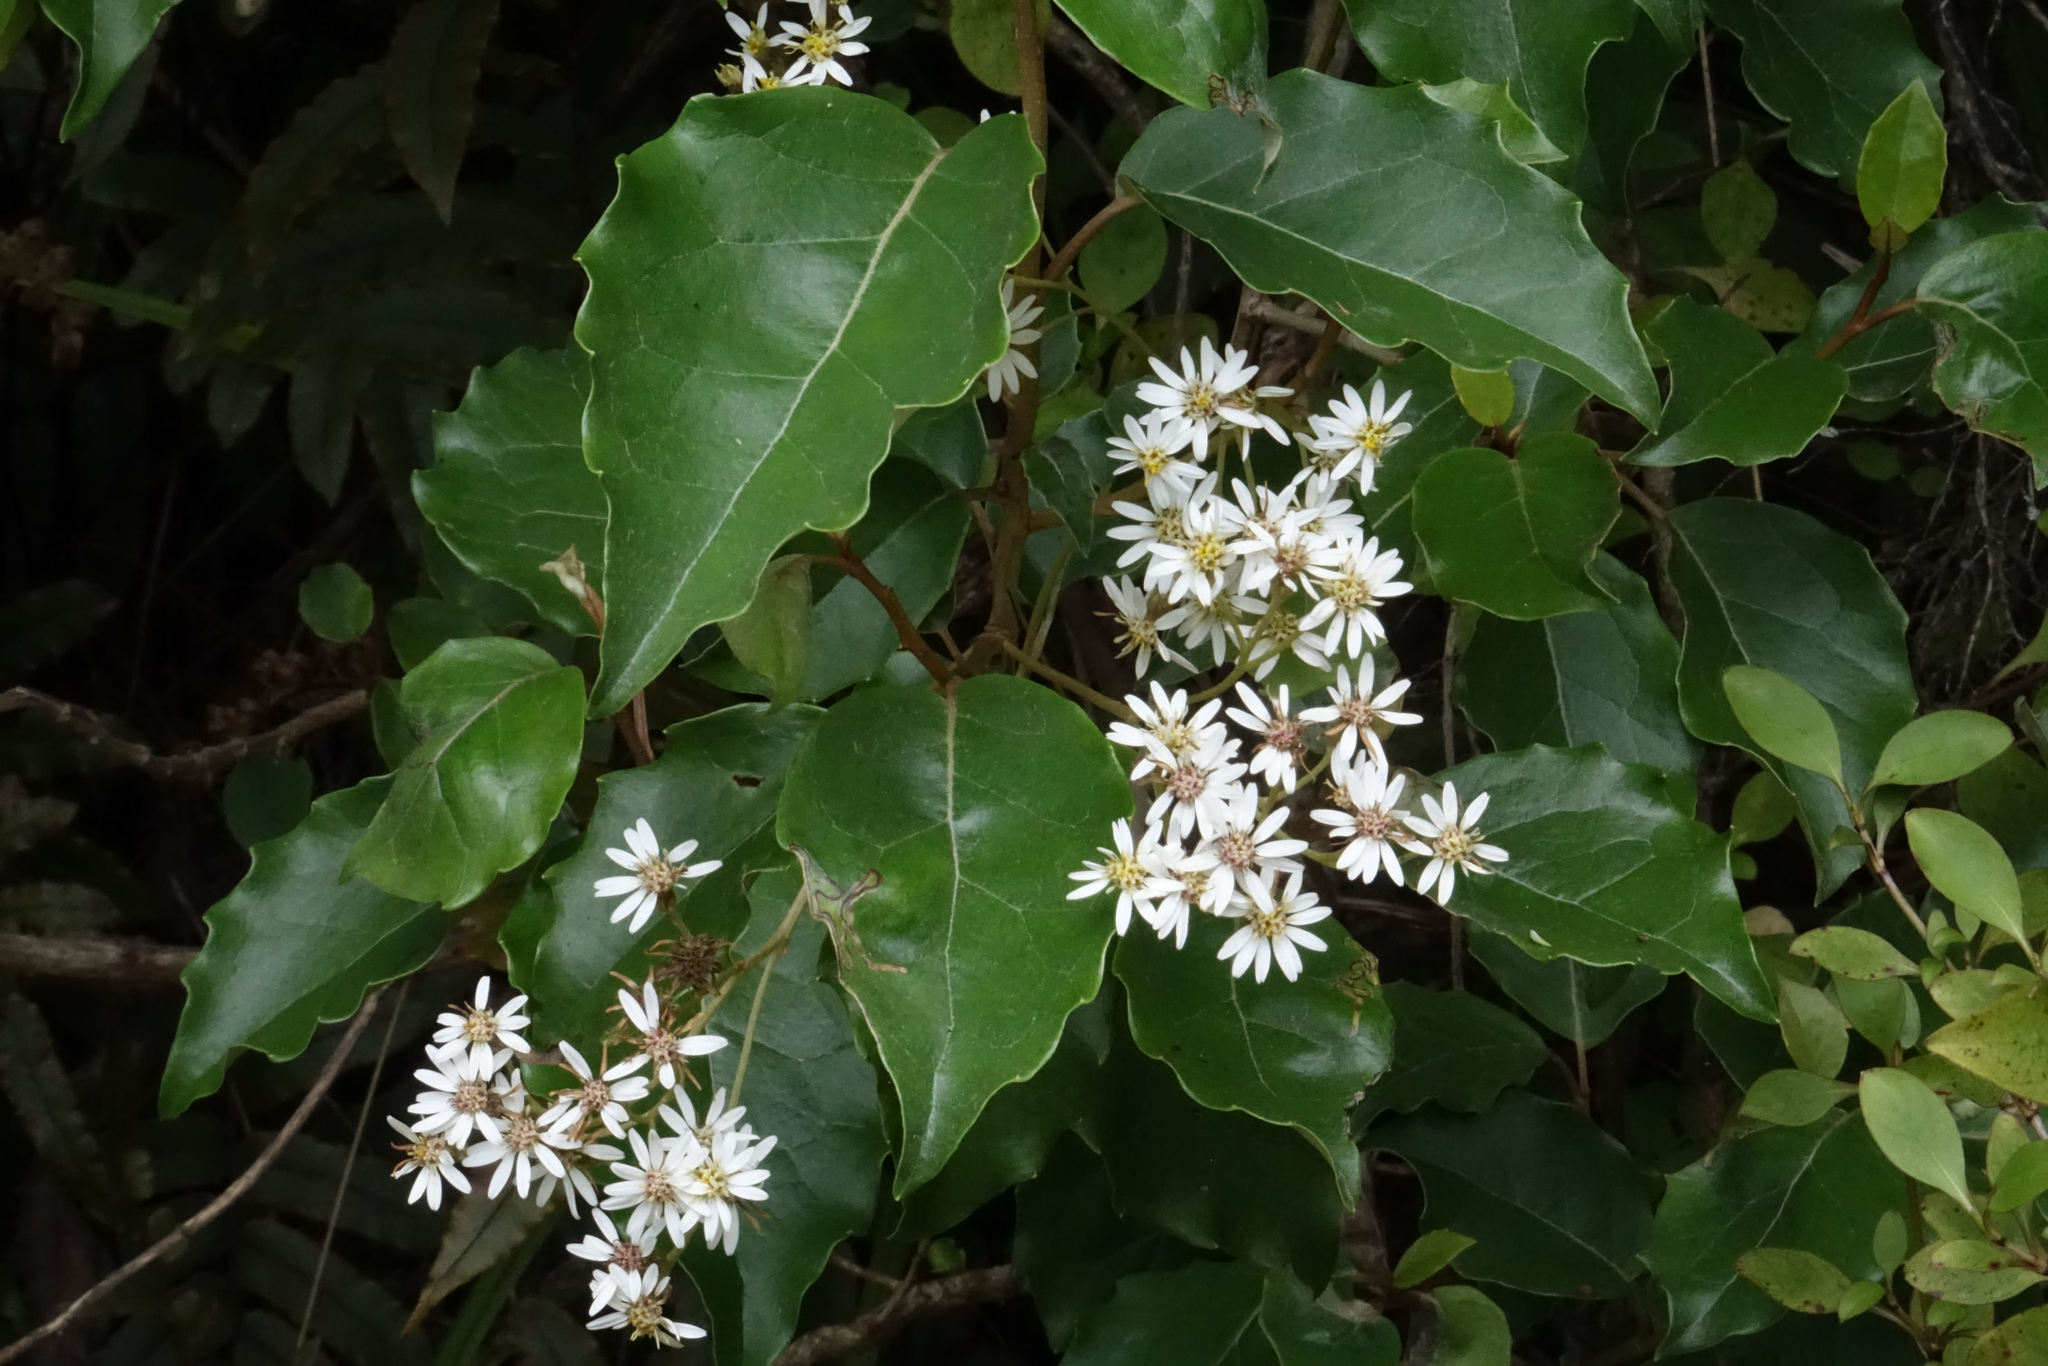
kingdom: Plantae
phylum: Tracheophyta
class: Magnoliopsida
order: Asterales
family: Asteraceae
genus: Olearia
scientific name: Olearia arborescens
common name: Glossy tree daisy
